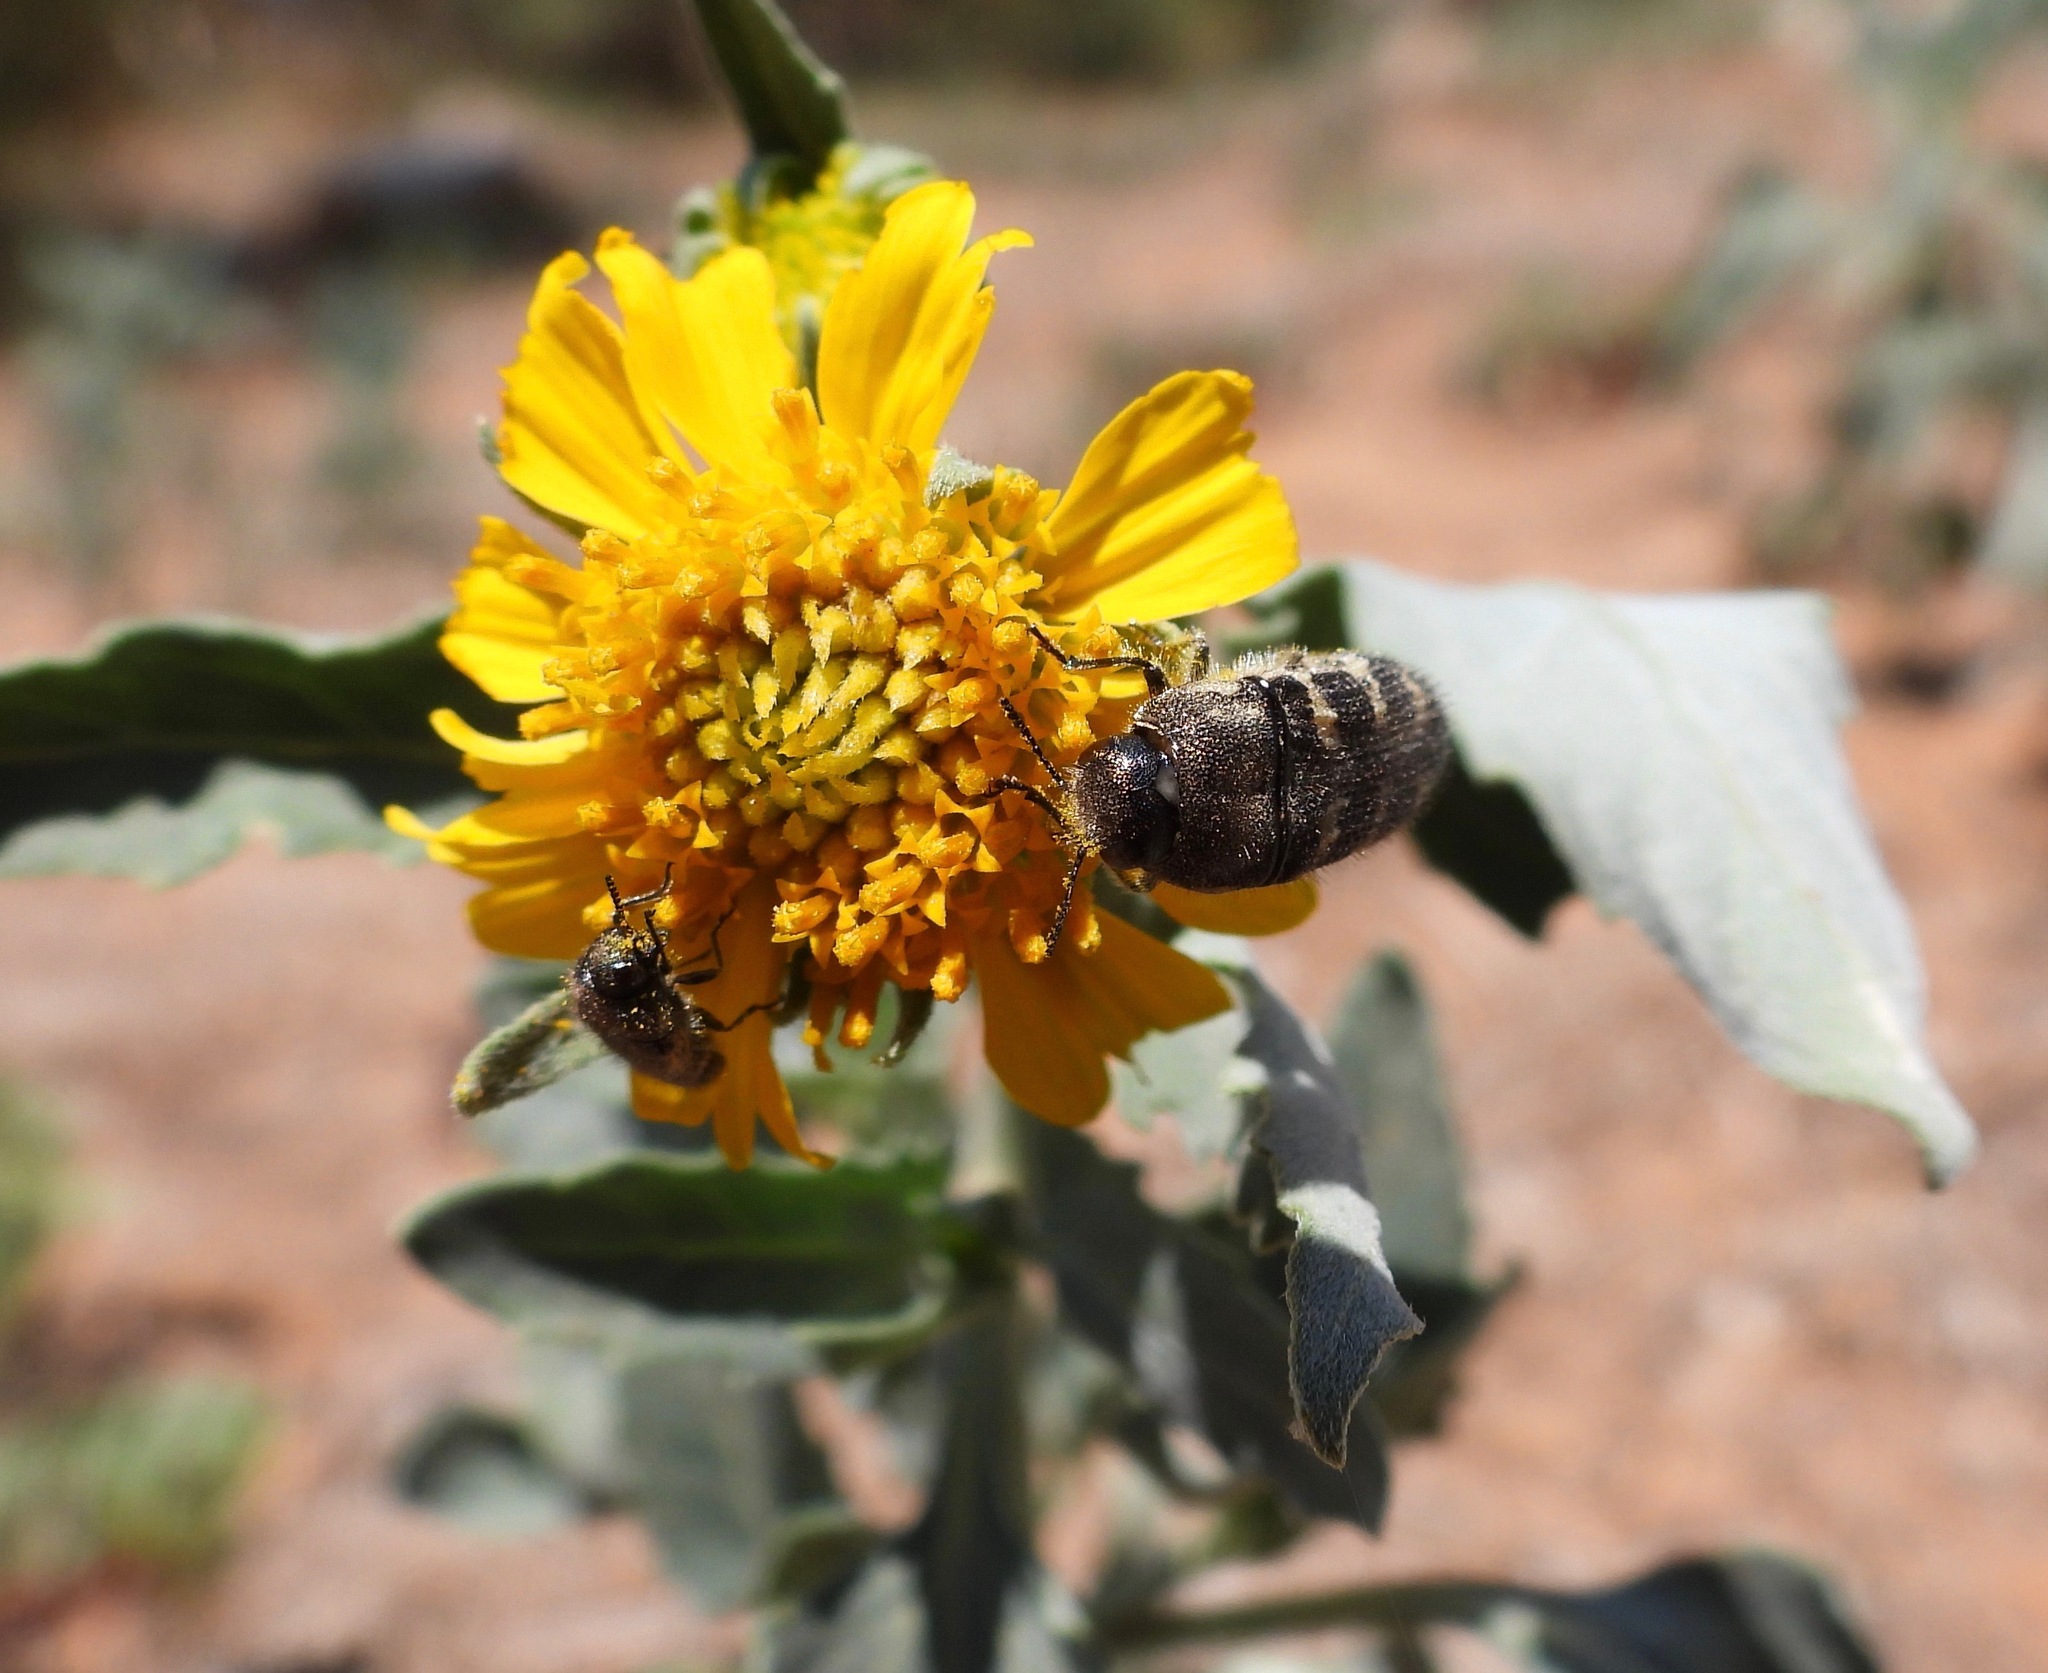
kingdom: Animalia
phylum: Arthropoda
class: Insecta
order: Coleoptera
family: Buprestidae
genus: Acmaeodera
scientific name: Acmaeodera bowditchi
